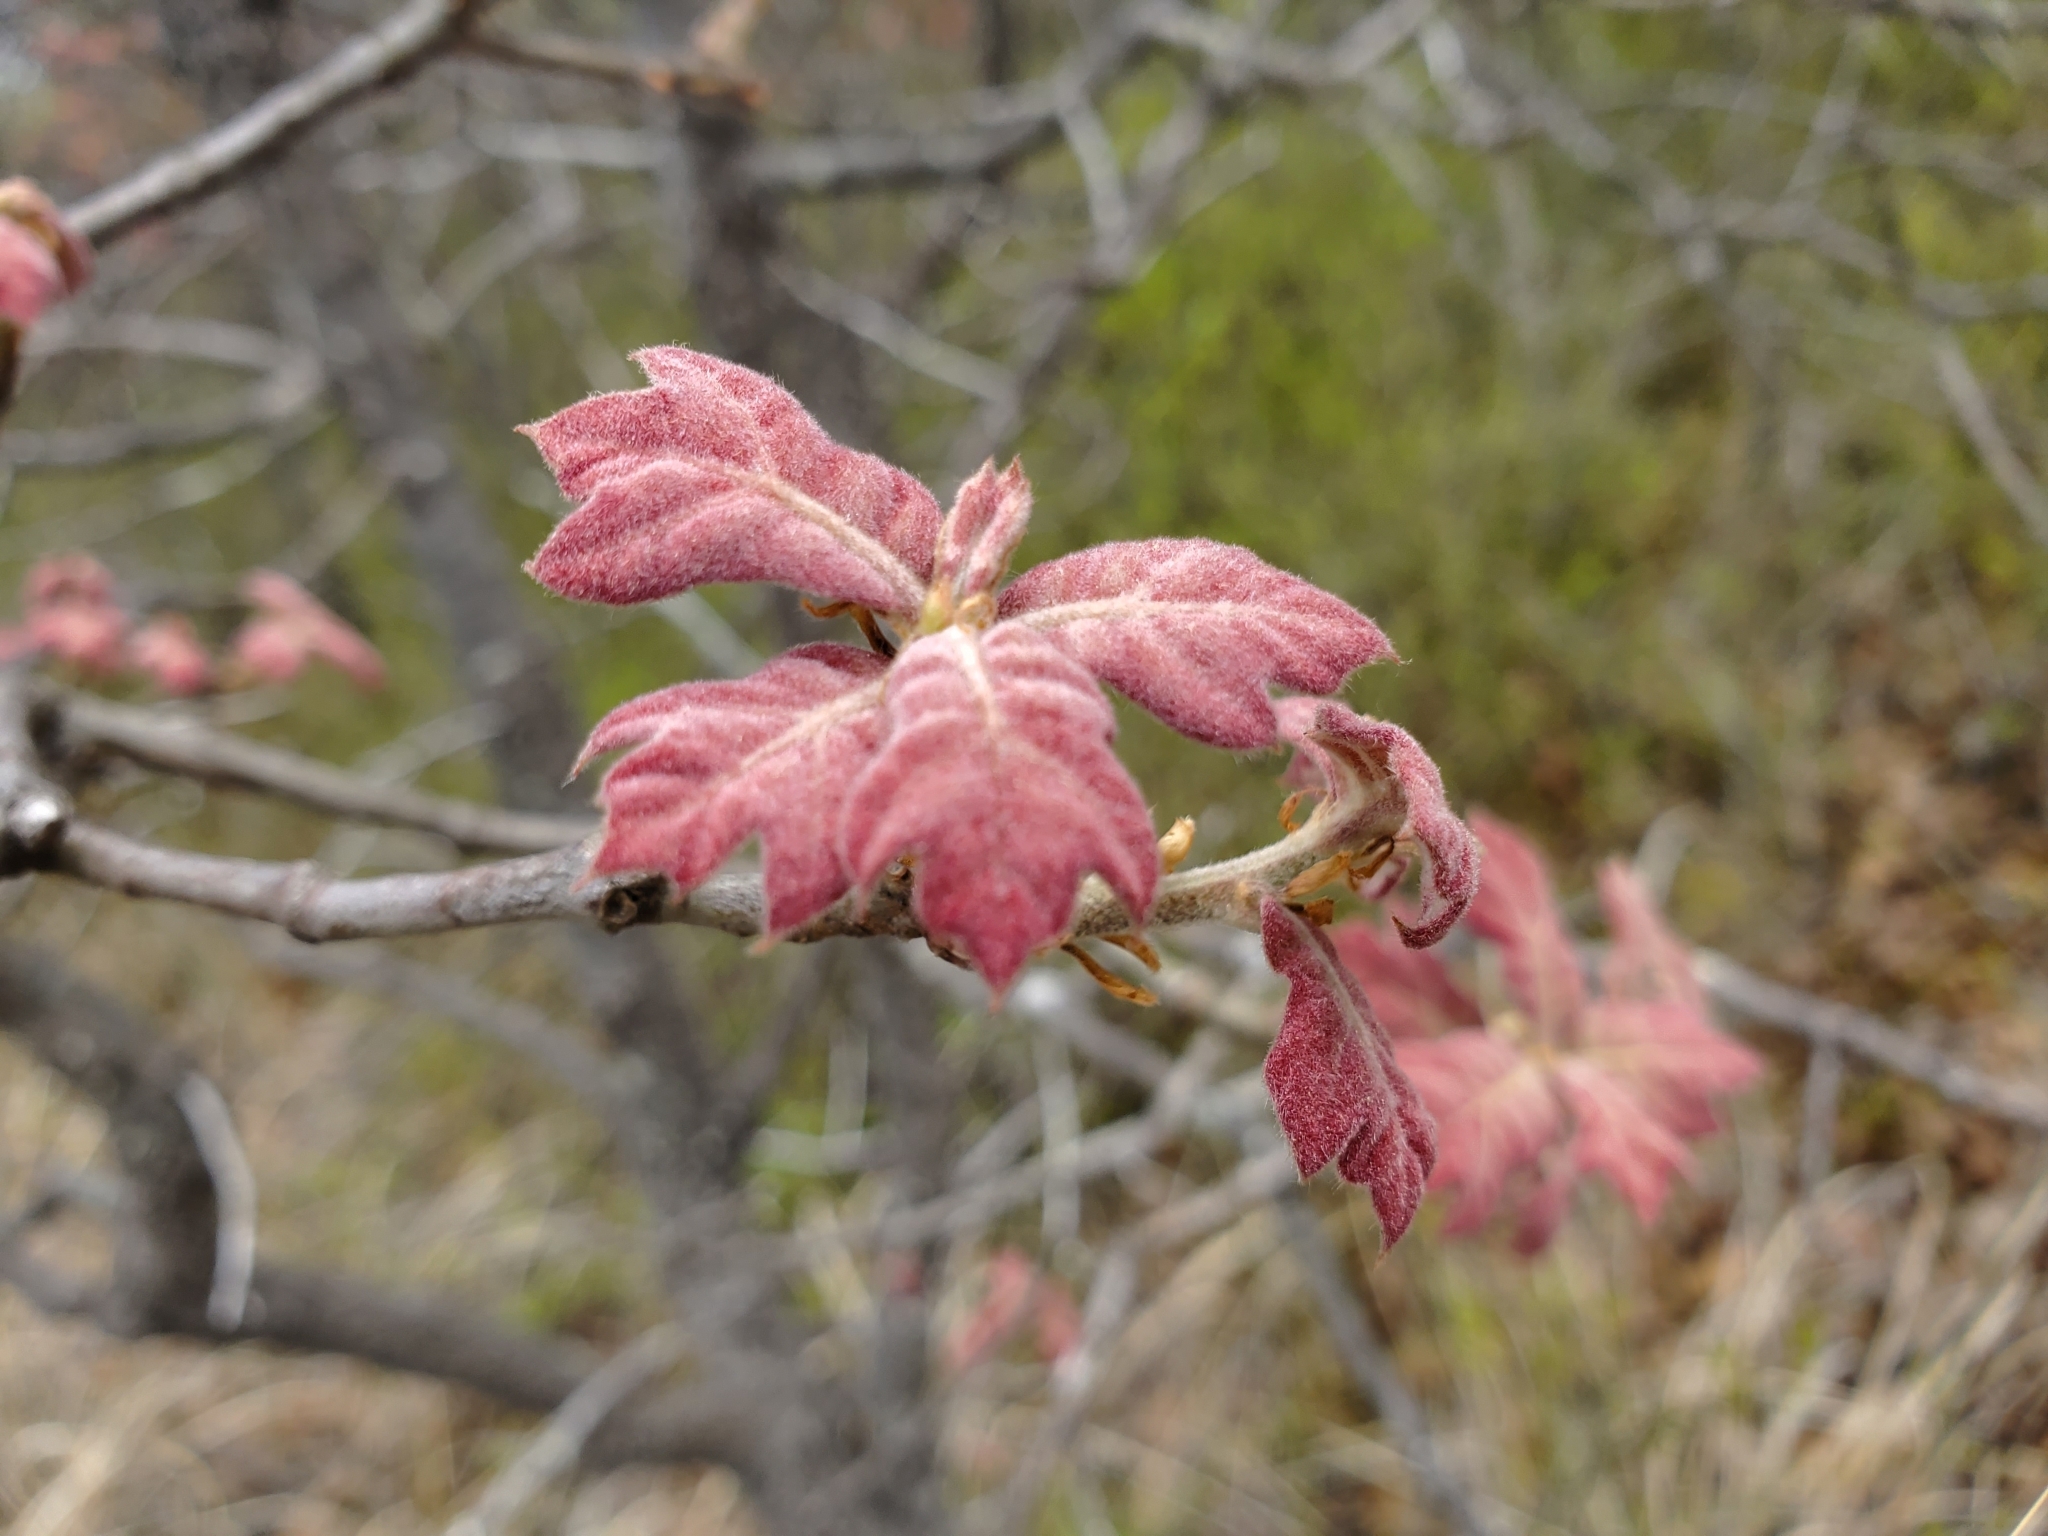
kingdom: Plantae
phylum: Tracheophyta
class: Magnoliopsida
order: Fagales
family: Fagaceae
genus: Quercus
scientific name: Quercus ilicifolia
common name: Bear oak
